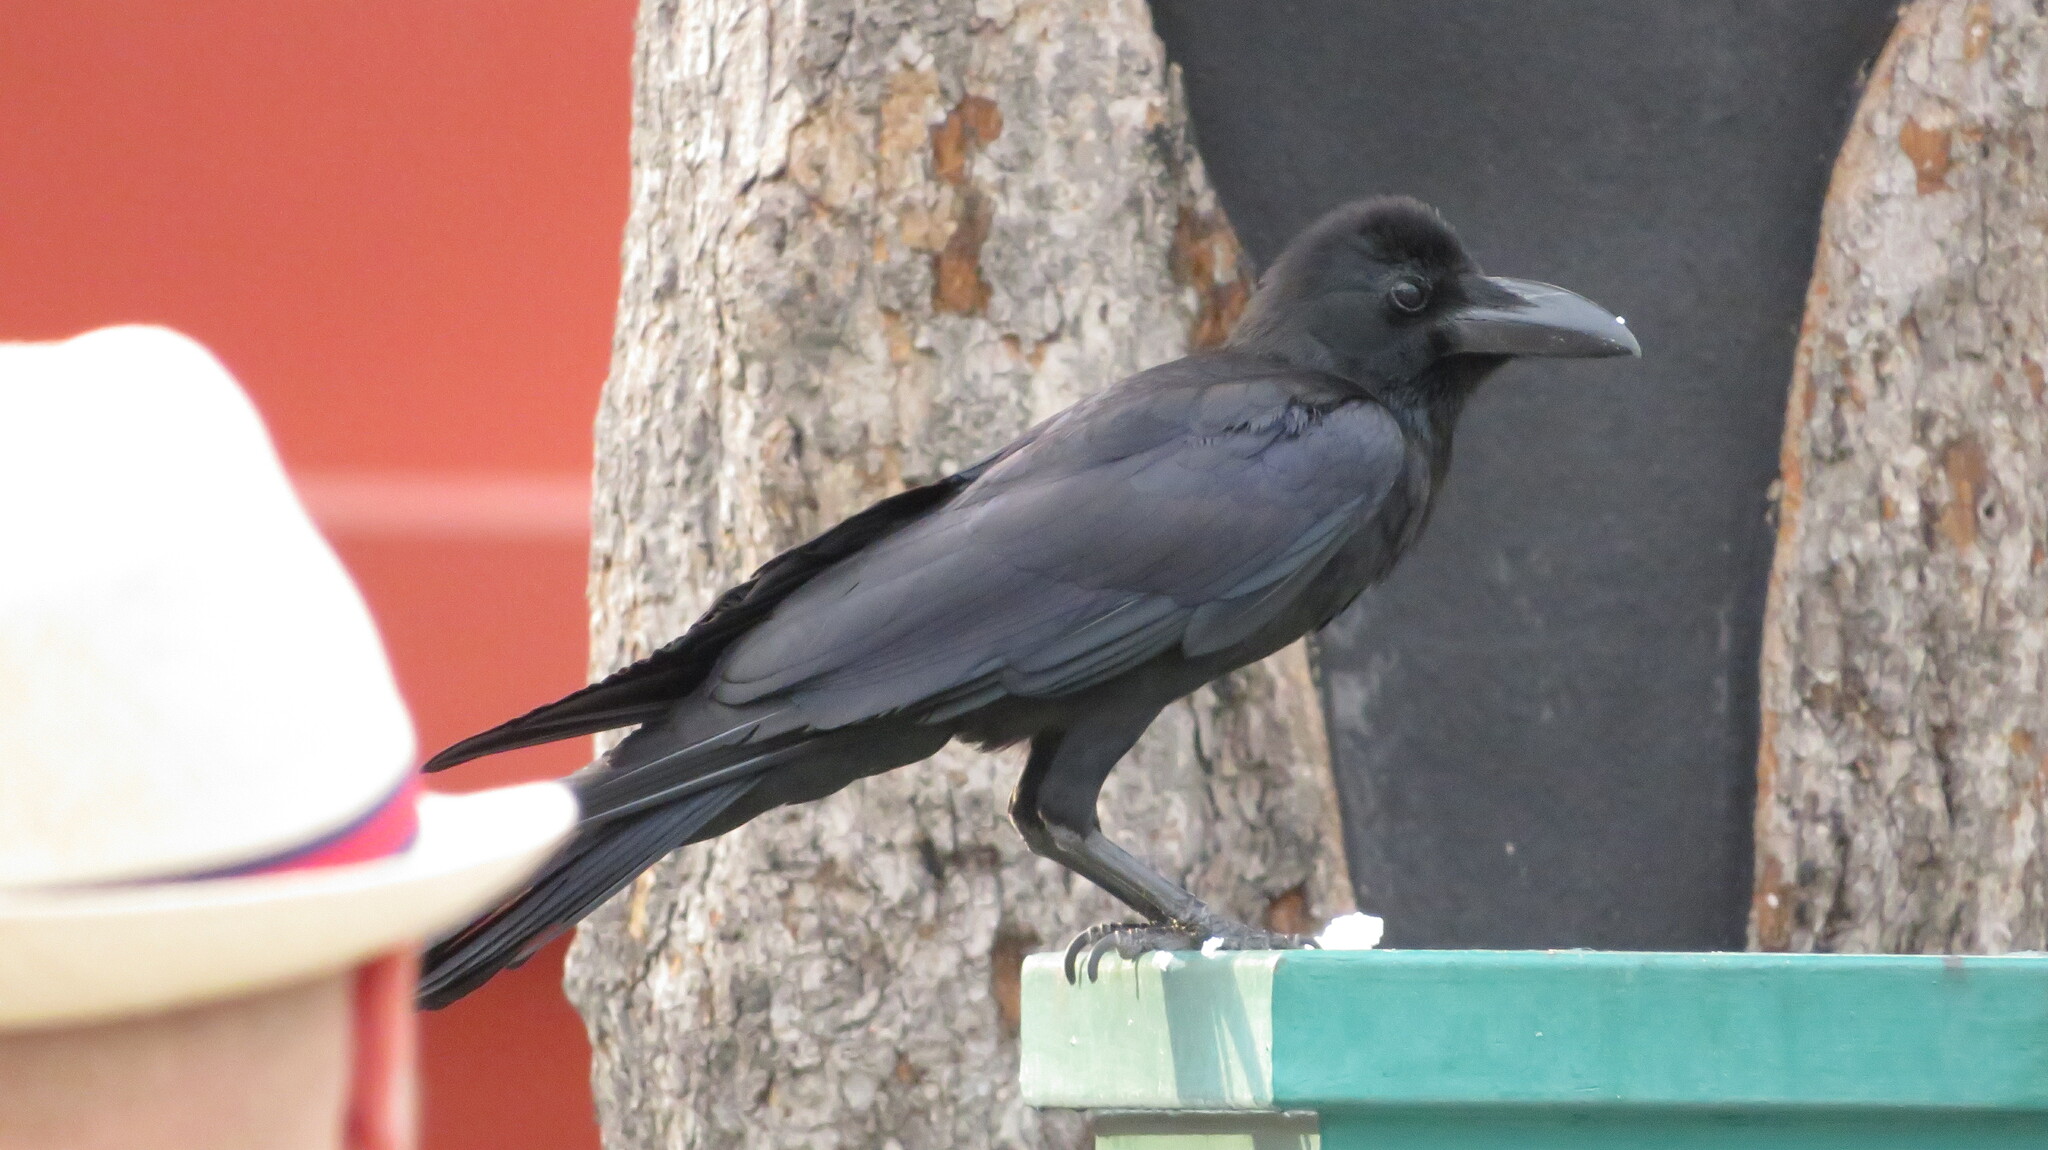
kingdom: Animalia
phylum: Chordata
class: Aves
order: Passeriformes
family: Corvidae
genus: Corvus
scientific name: Corvus macrorhynchos
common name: Large-billed crow
